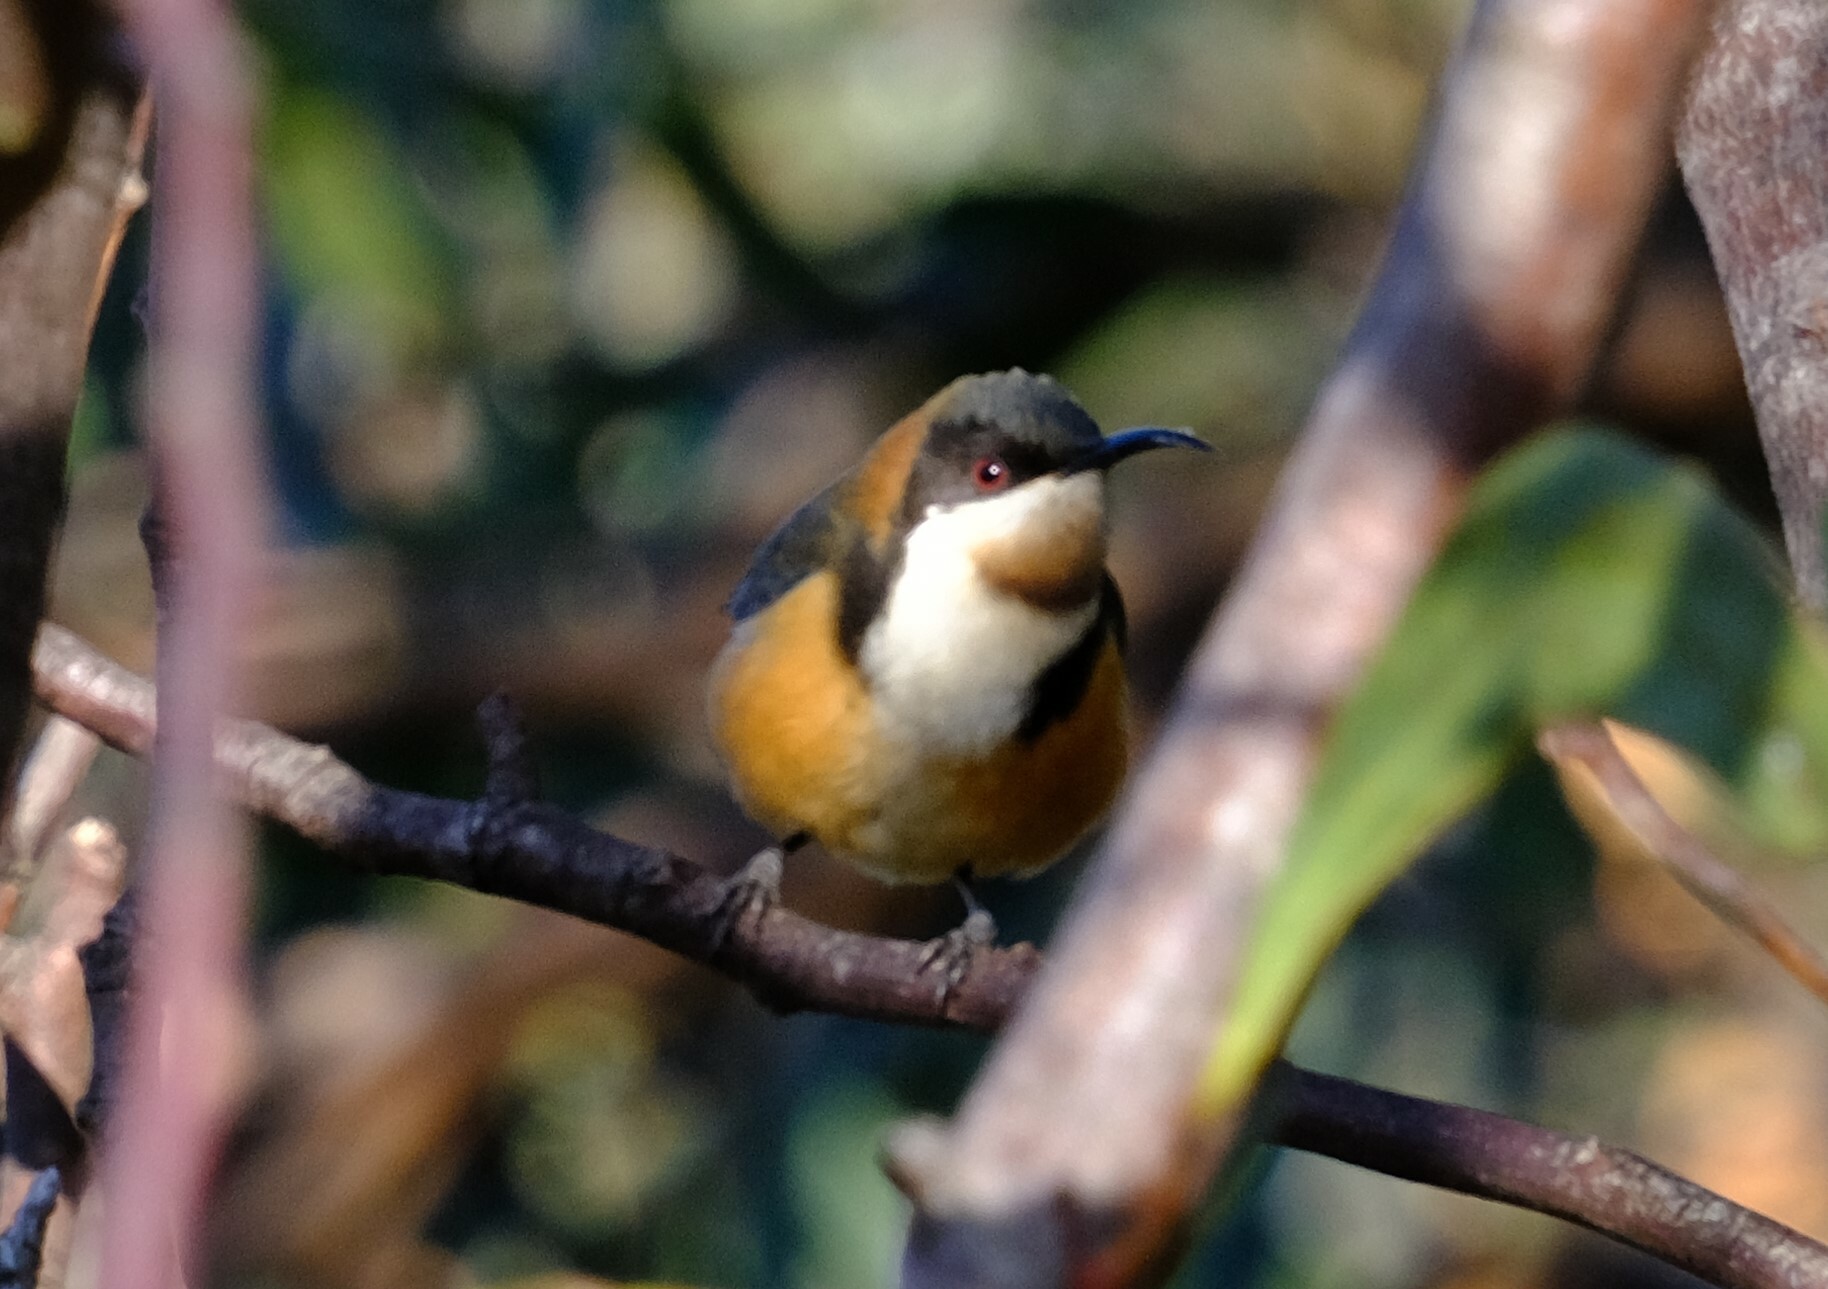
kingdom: Animalia
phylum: Chordata
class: Aves
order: Passeriformes
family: Meliphagidae
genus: Acanthorhynchus
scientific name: Acanthorhynchus tenuirostris
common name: Eastern spinebill
